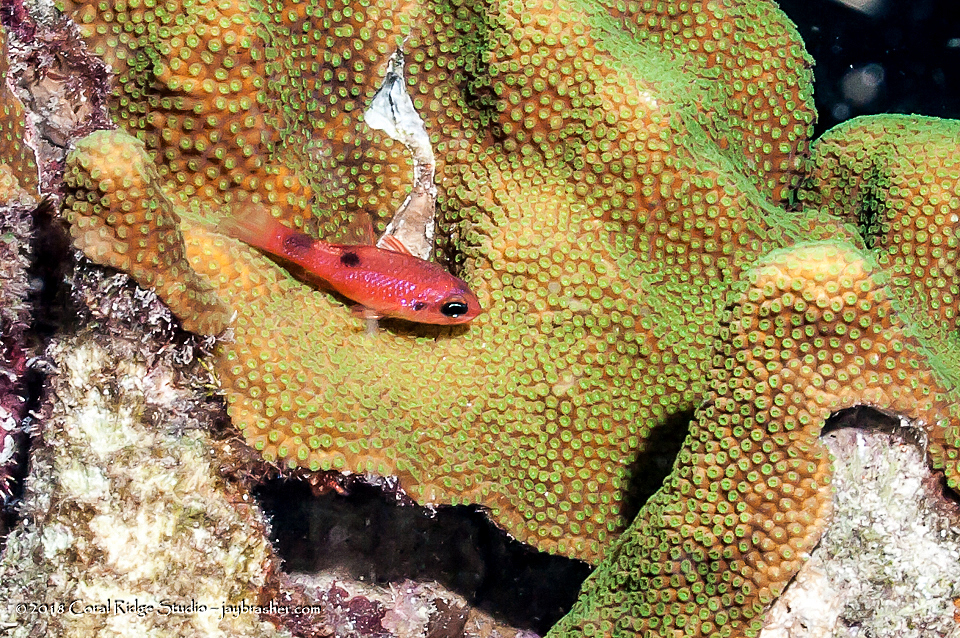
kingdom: Animalia
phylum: Chordata
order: Perciformes
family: Apogonidae
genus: Apogon
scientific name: Apogon maculatus
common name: Flamefish
